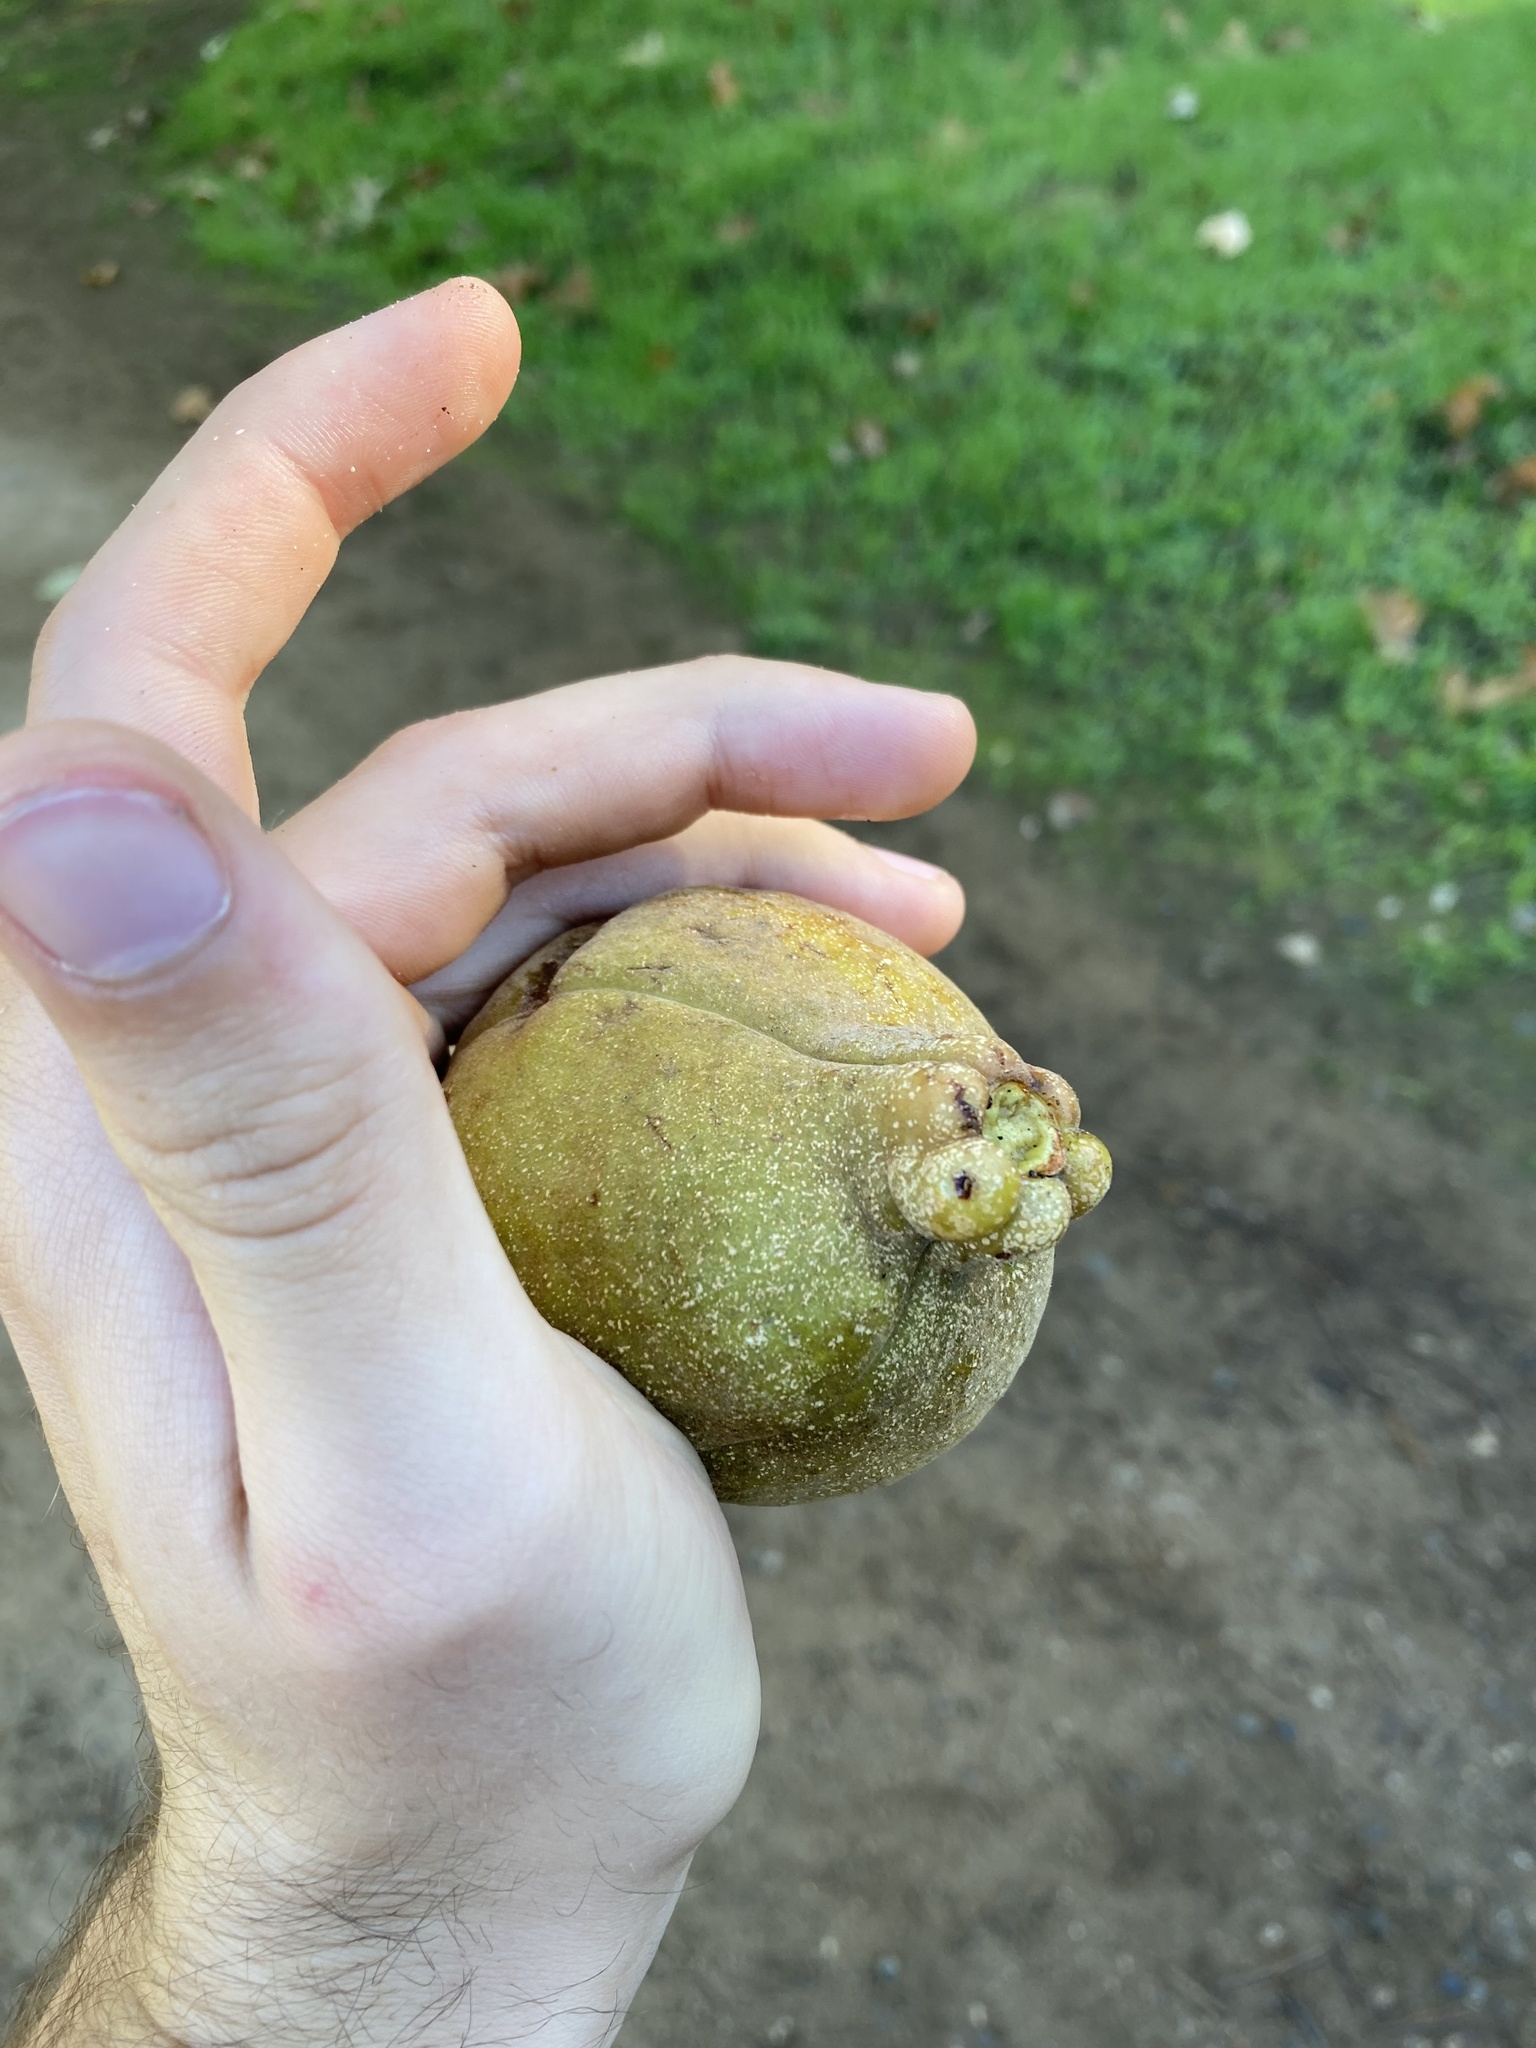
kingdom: Plantae
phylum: Tracheophyta
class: Magnoliopsida
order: Laurales
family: Lauraceae
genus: Umbellularia
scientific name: Umbellularia californica
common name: California bay
